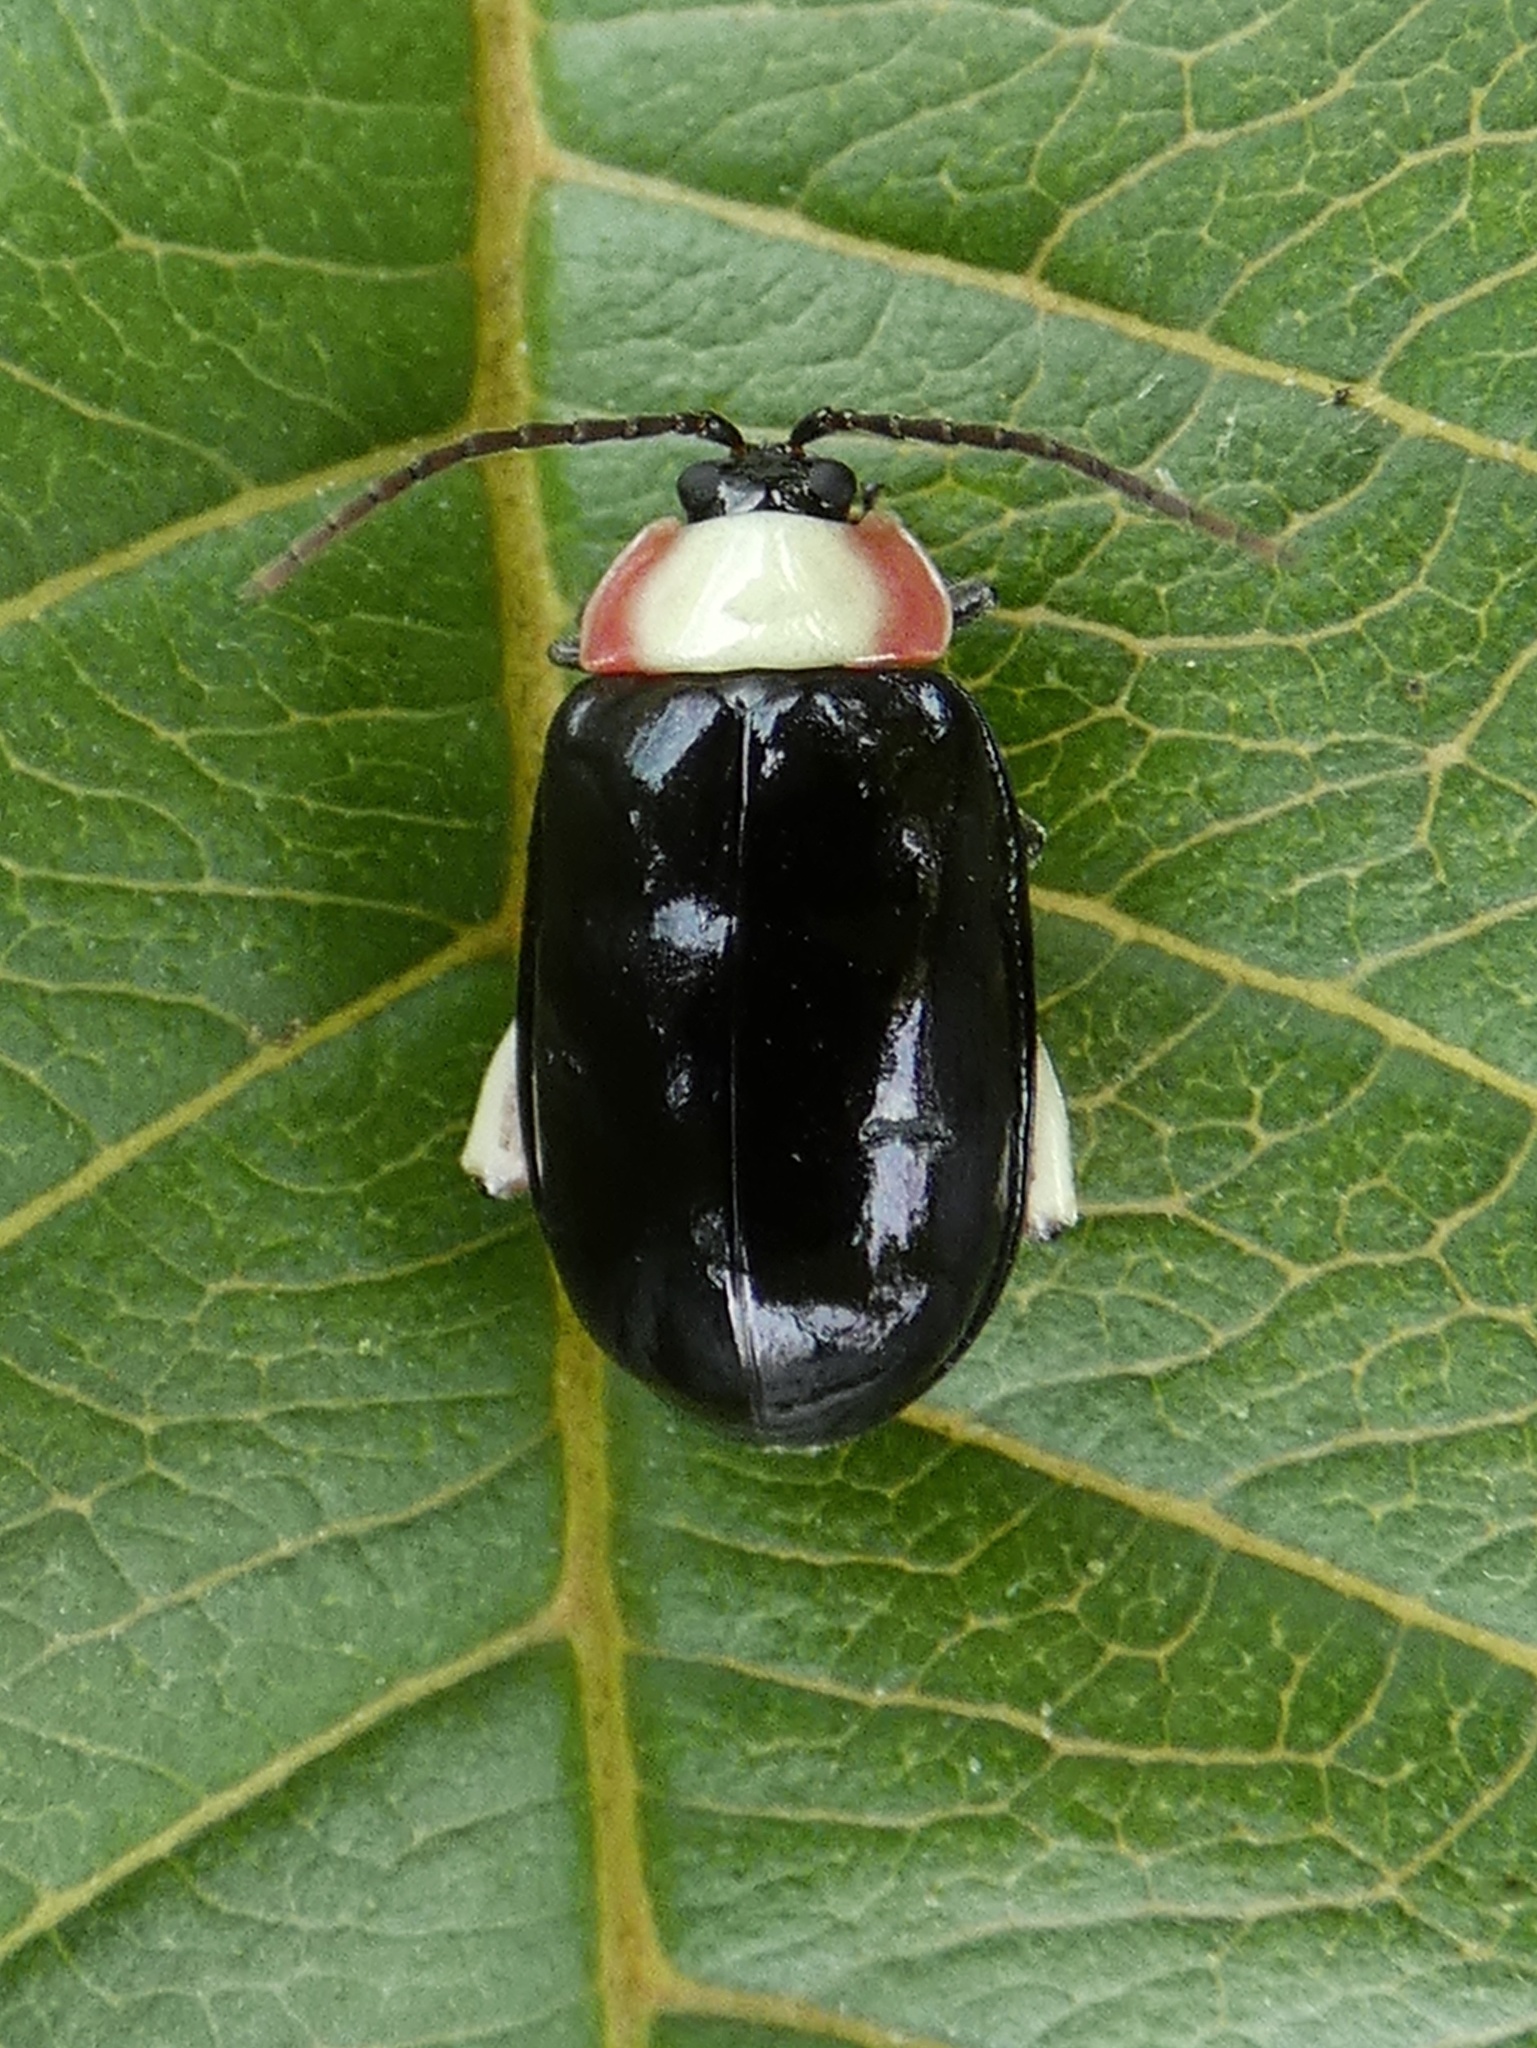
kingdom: Animalia
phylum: Arthropoda
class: Insecta
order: Coleoptera
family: Chrysomelidae
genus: Asphaera
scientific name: Asphaera
